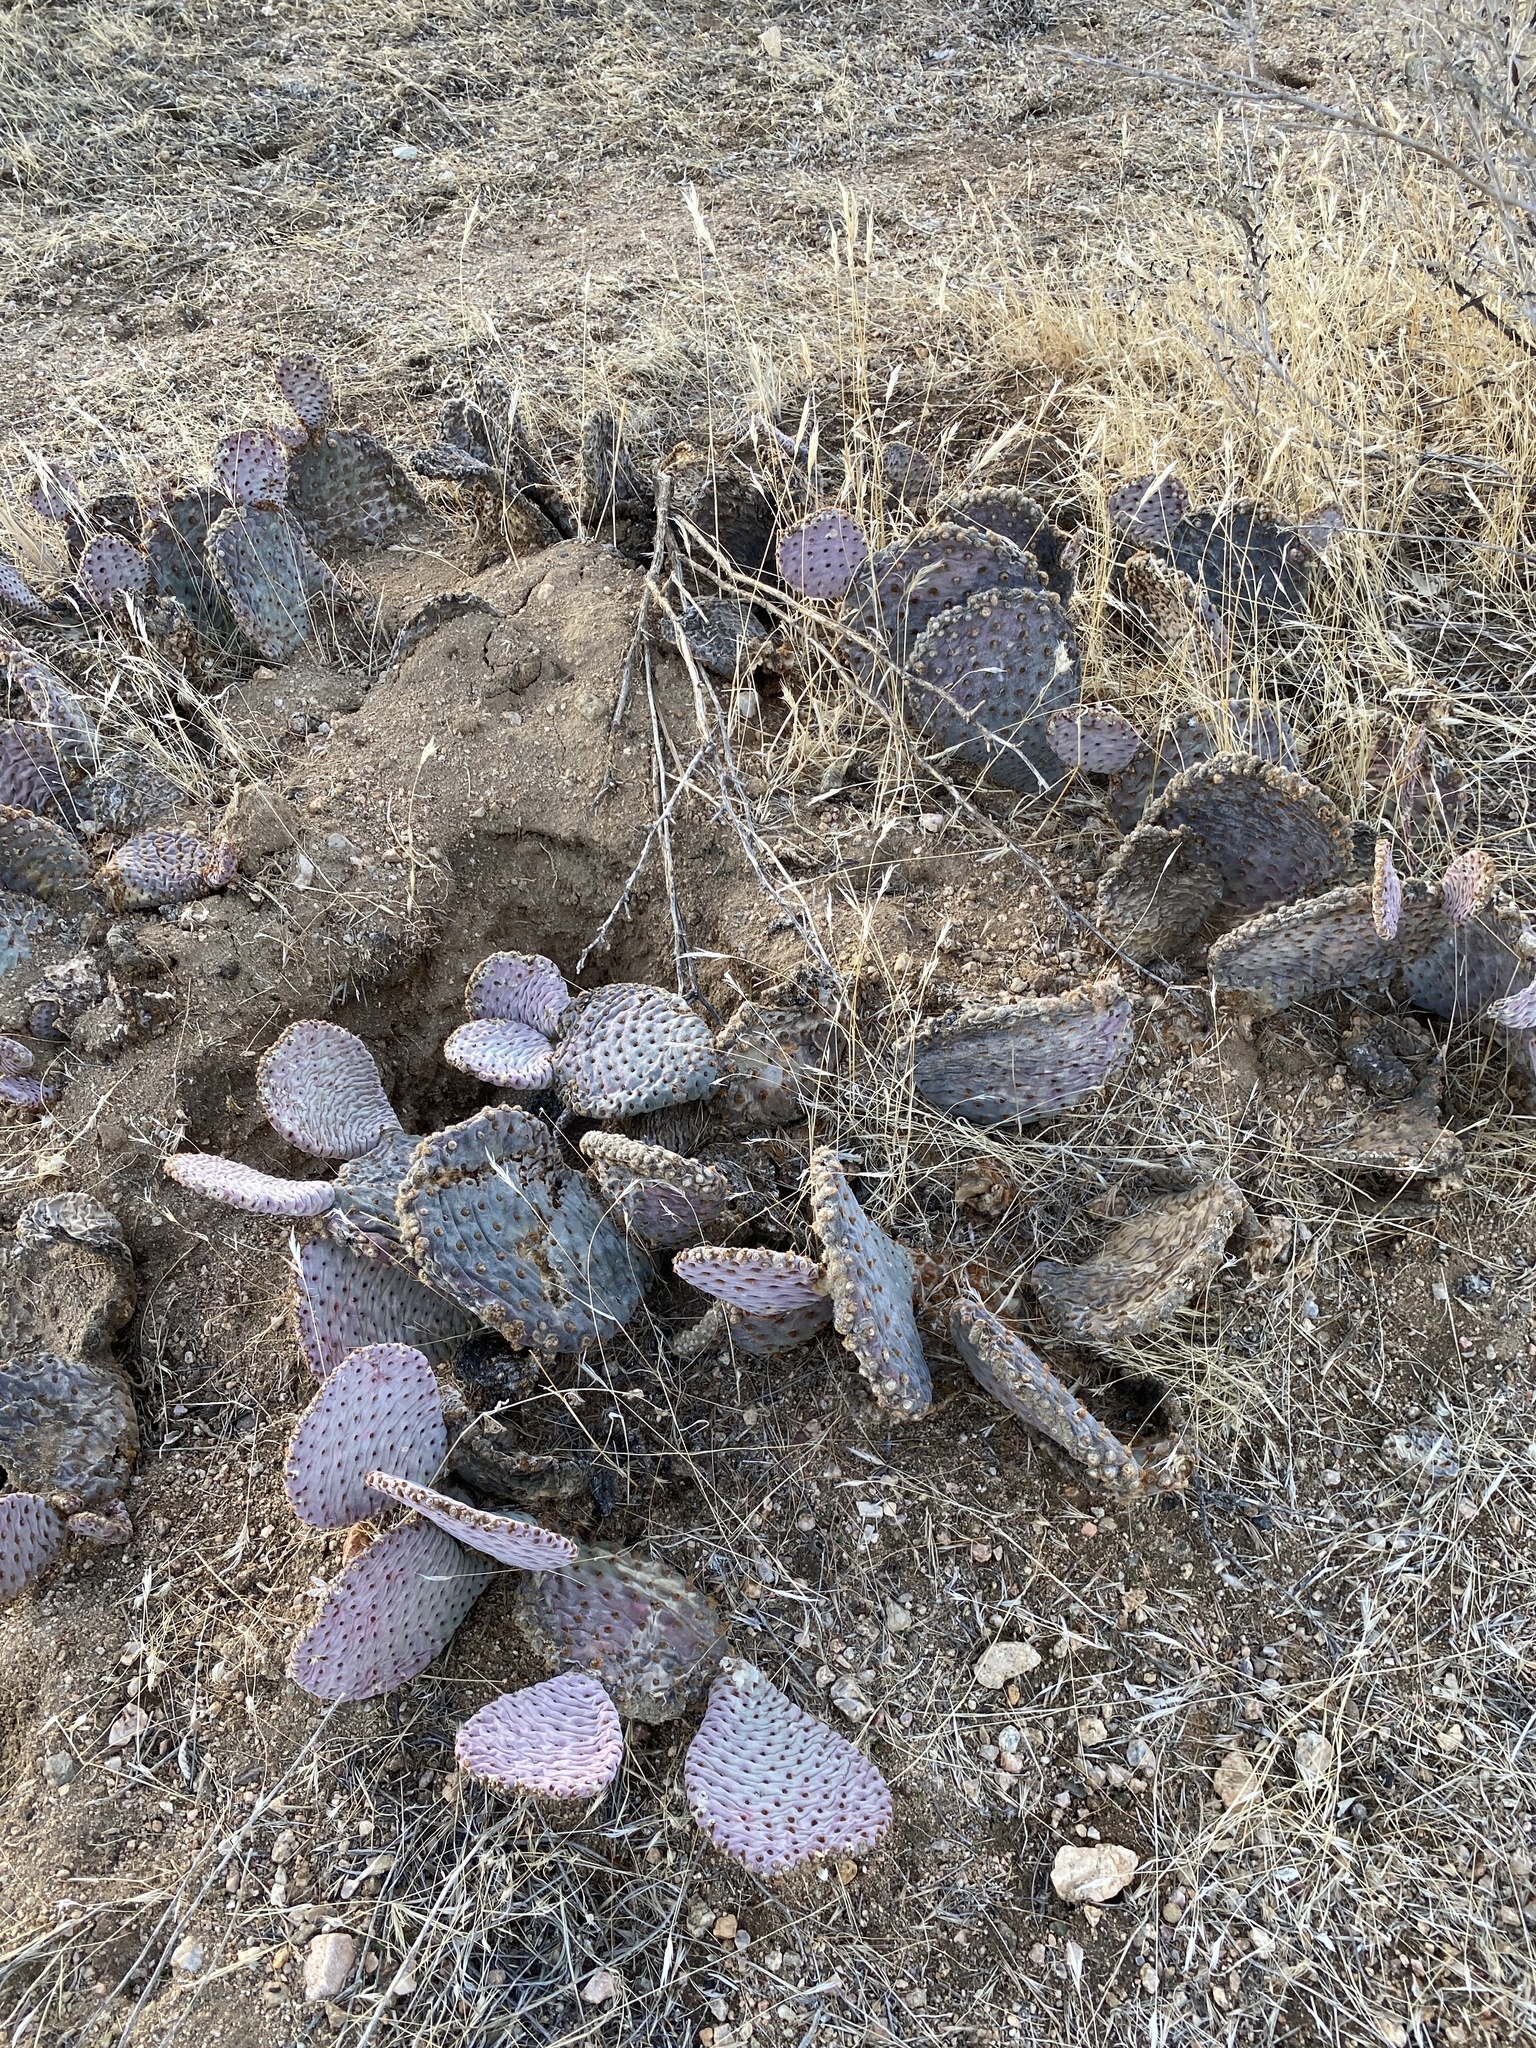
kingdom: Plantae
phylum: Tracheophyta
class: Magnoliopsida
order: Caryophyllales
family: Cactaceae
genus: Opuntia
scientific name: Opuntia basilaris
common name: Beavertail prickly-pear
